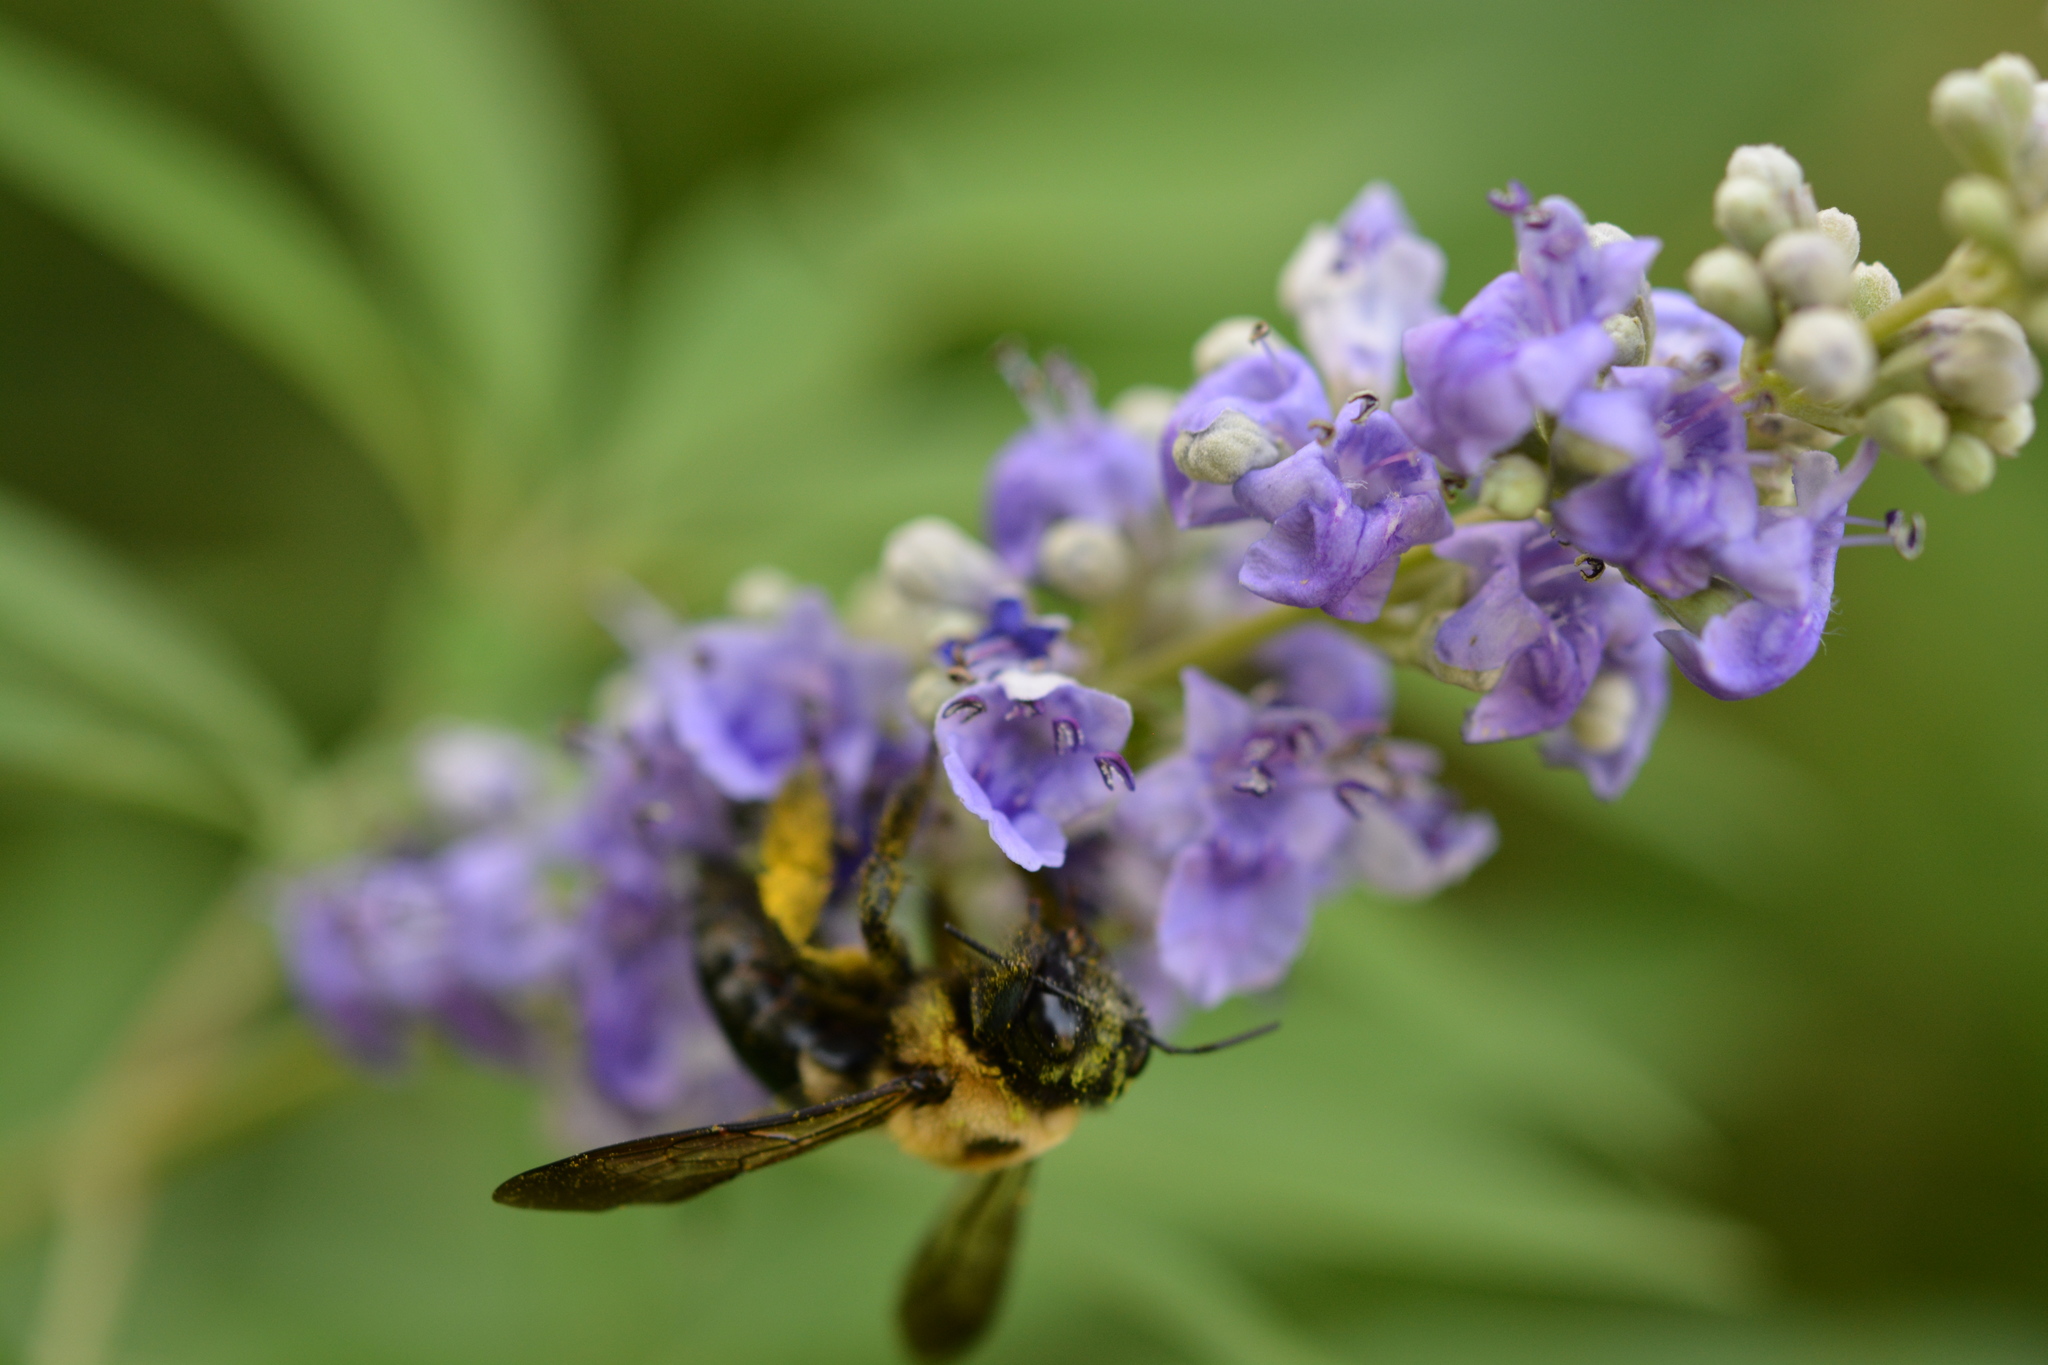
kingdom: Animalia
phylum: Arthropoda
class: Insecta
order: Hymenoptera
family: Apidae
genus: Xylocopa
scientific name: Xylocopa virginica
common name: Carpenter bee
